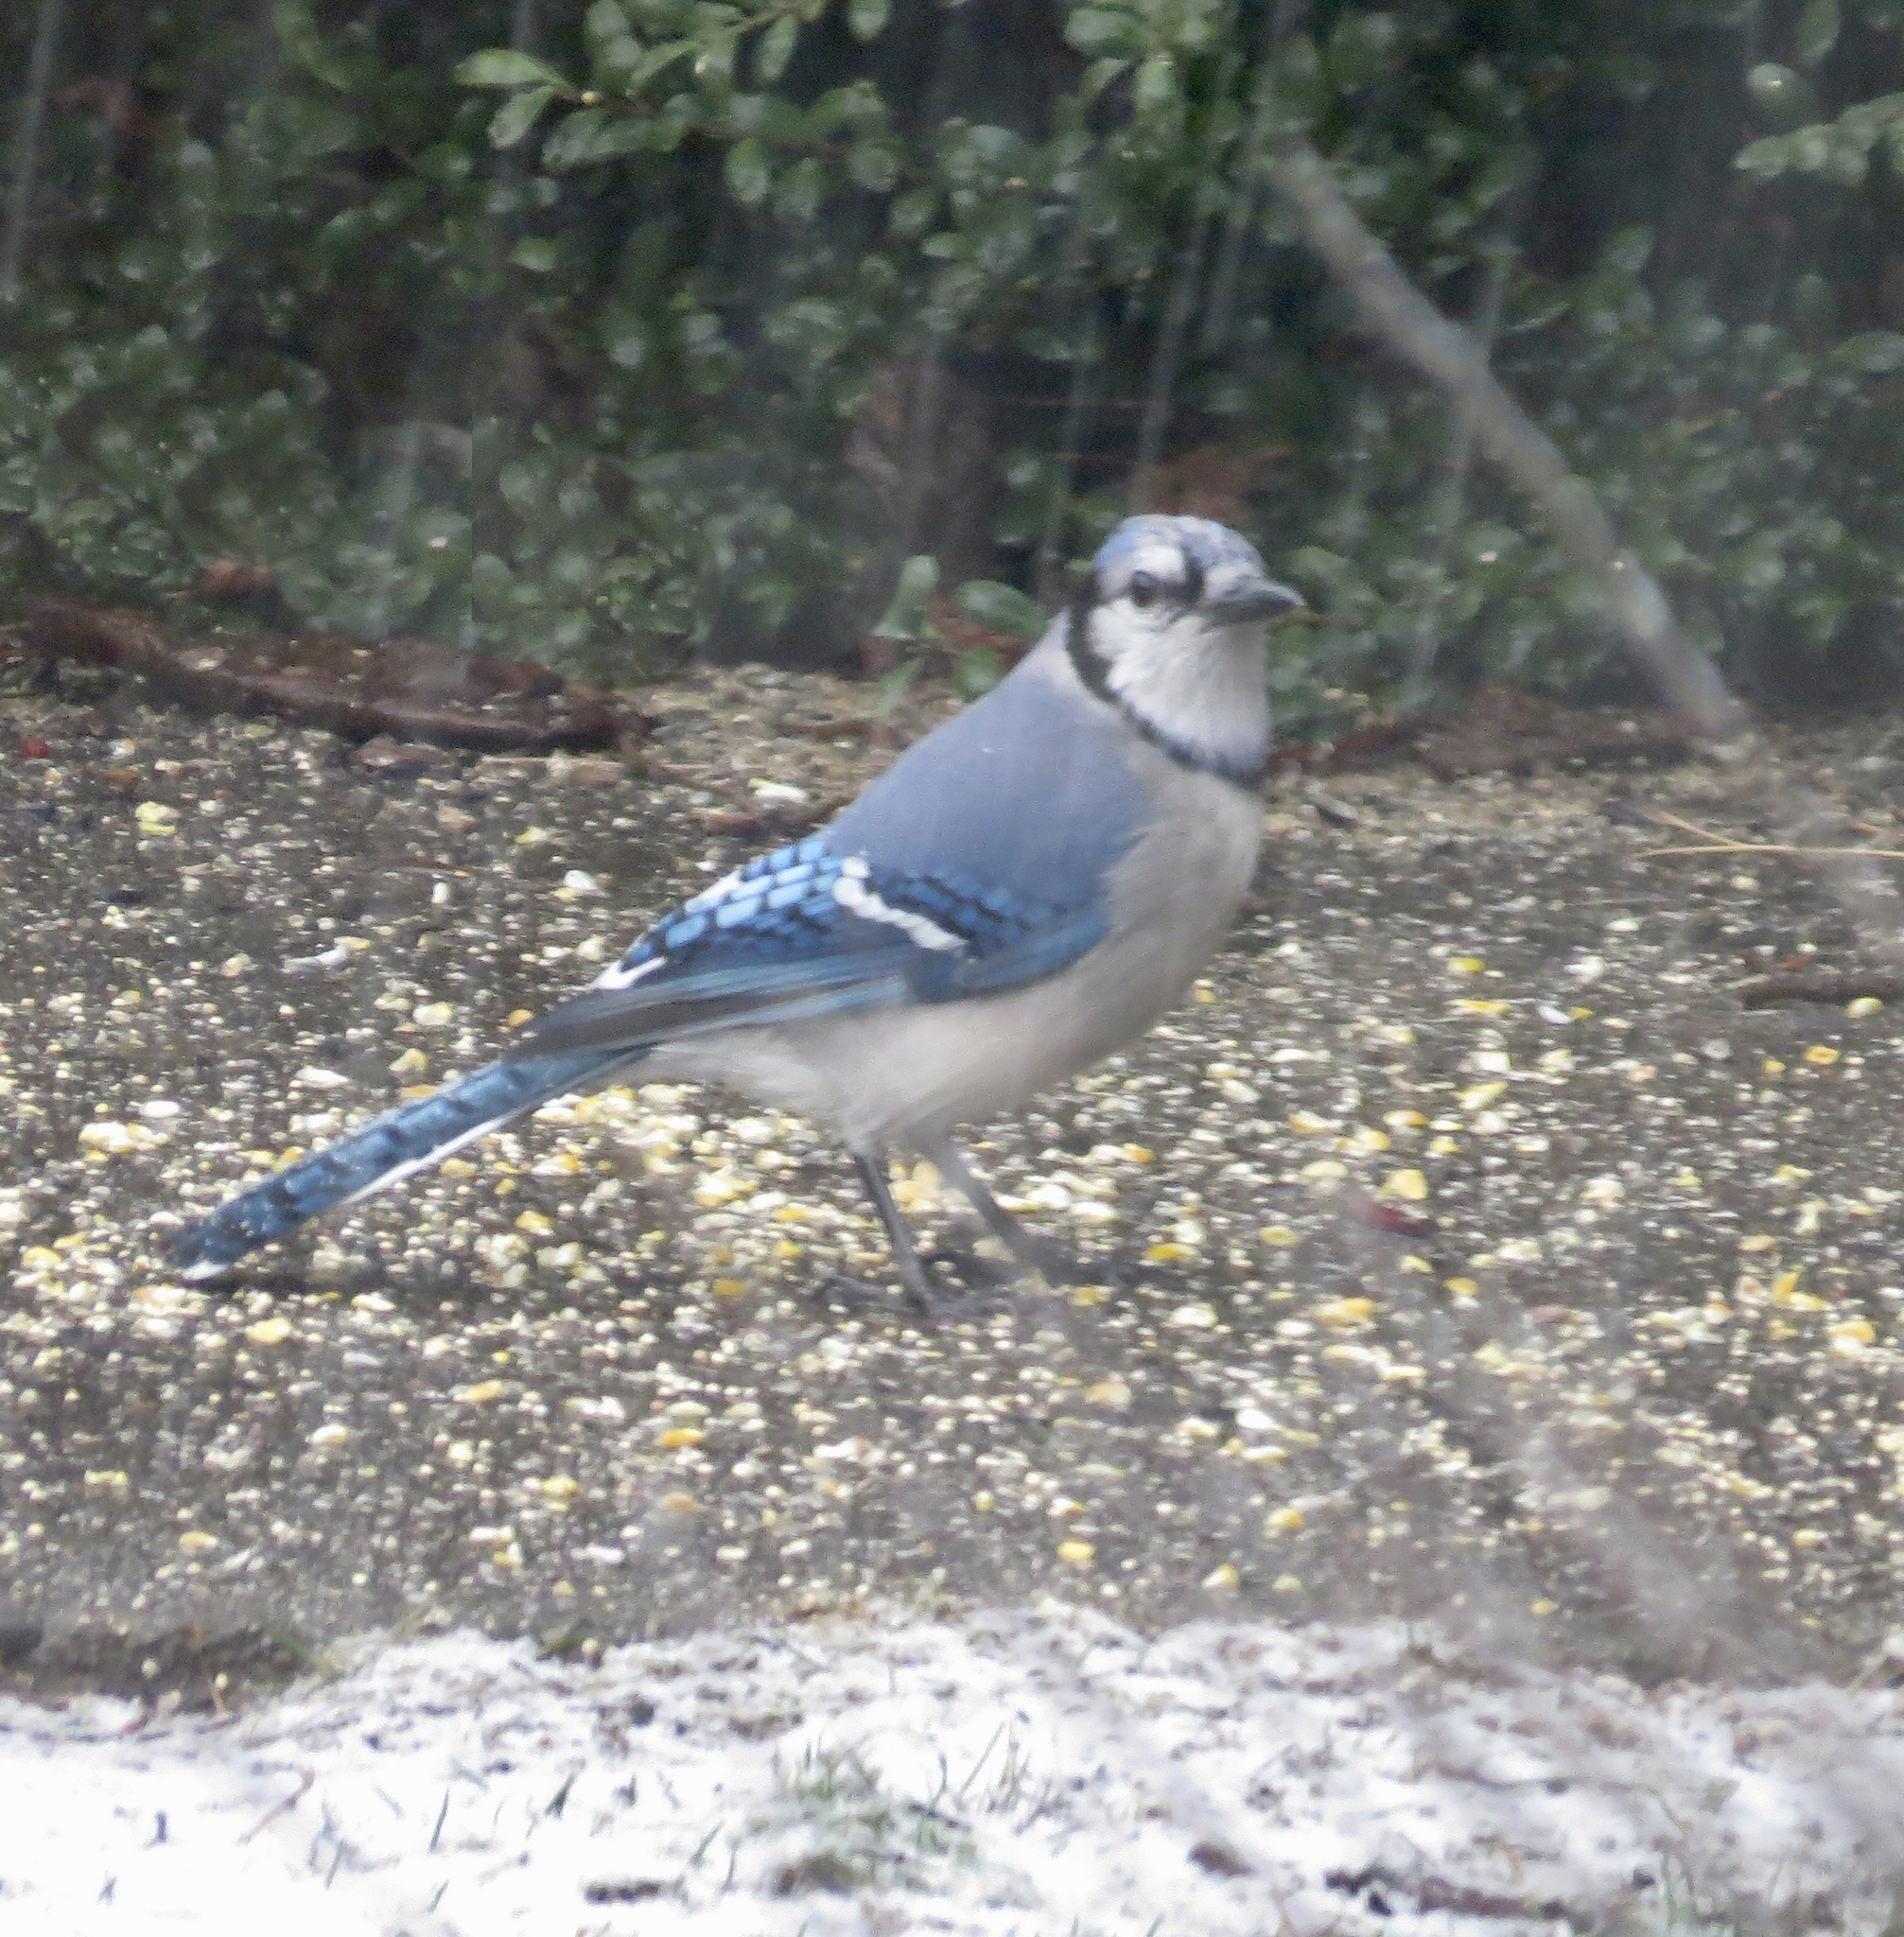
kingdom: Animalia
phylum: Chordata
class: Aves
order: Passeriformes
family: Corvidae
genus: Cyanocitta
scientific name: Cyanocitta cristata
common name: Blue jay
